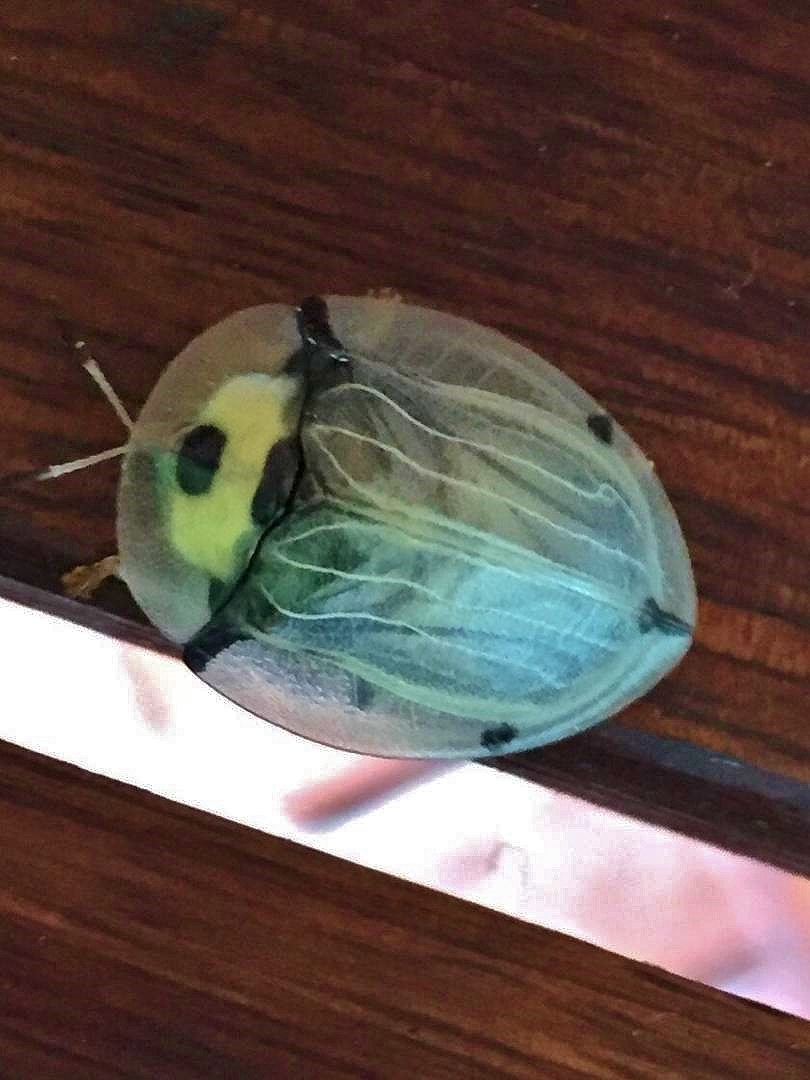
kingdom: Animalia
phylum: Arthropoda
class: Insecta
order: Coleoptera
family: Chrysomelidae
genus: Aspidimorpha
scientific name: Aspidimorpha angolensis
